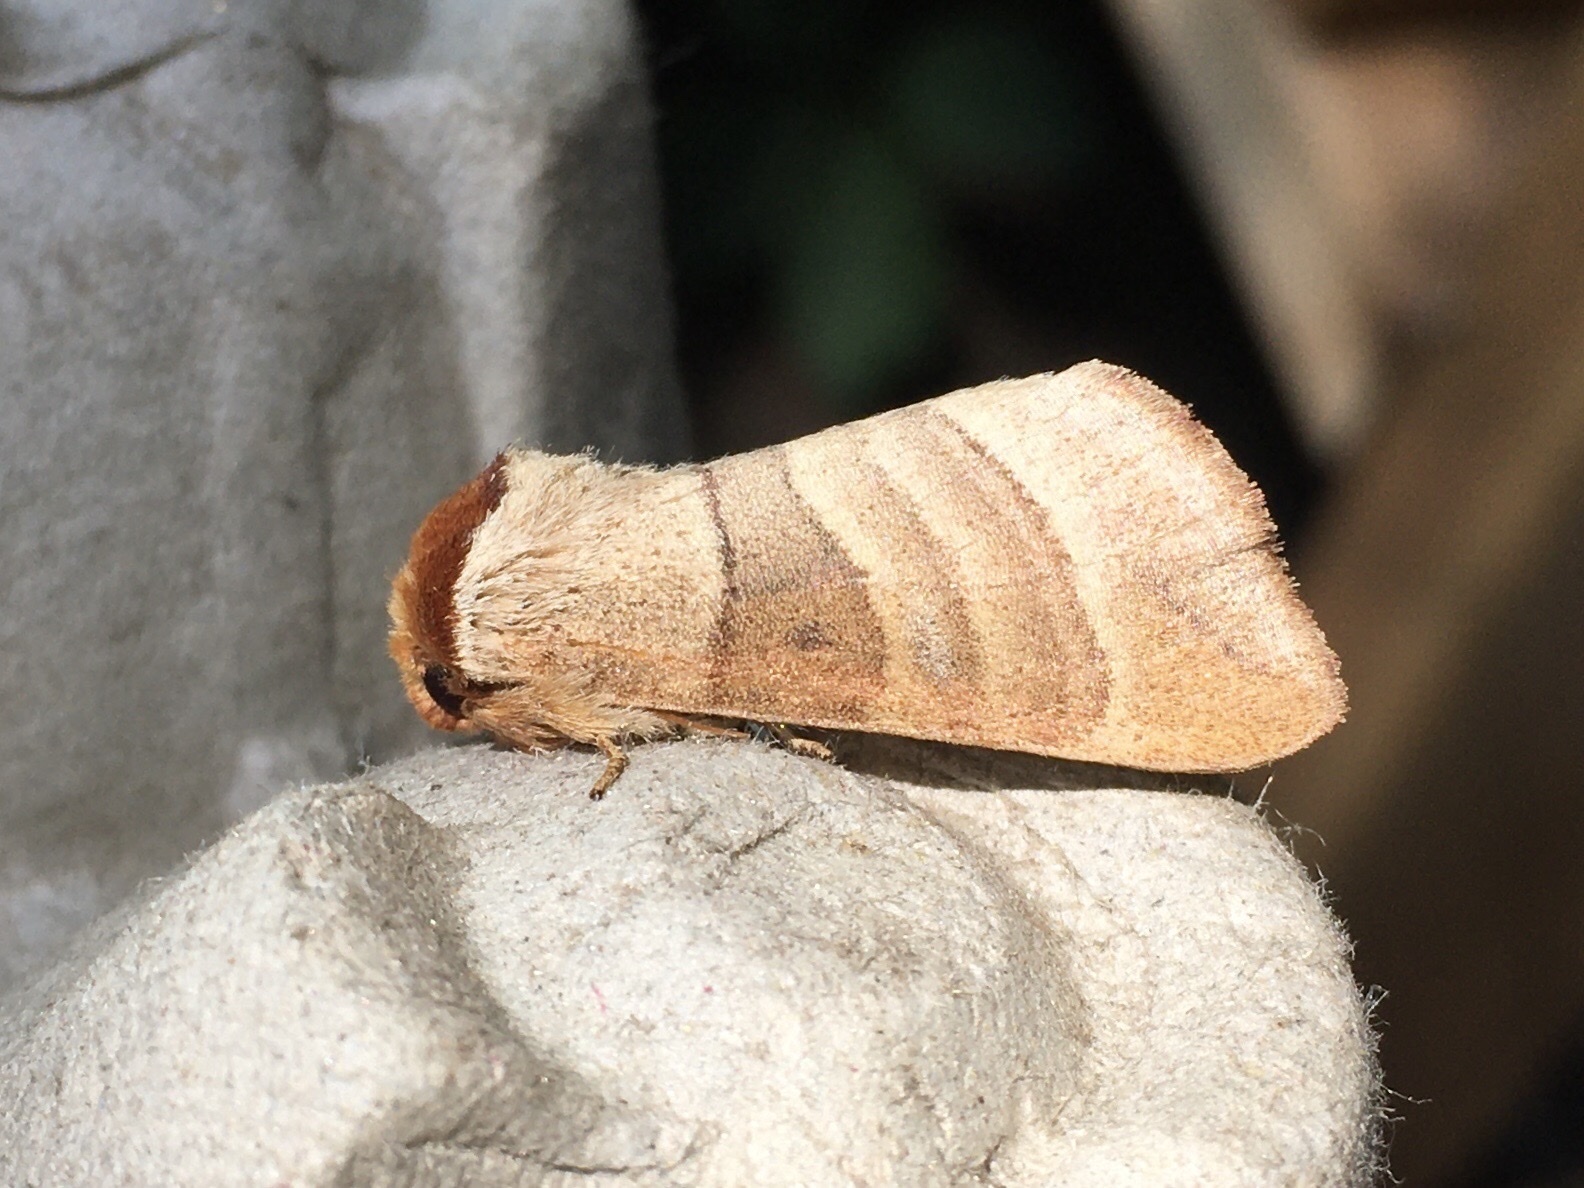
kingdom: Animalia
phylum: Arthropoda
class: Insecta
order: Lepidoptera
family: Notodontidae
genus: Datana
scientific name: Datana integerrima
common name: Walnut caterpillar
